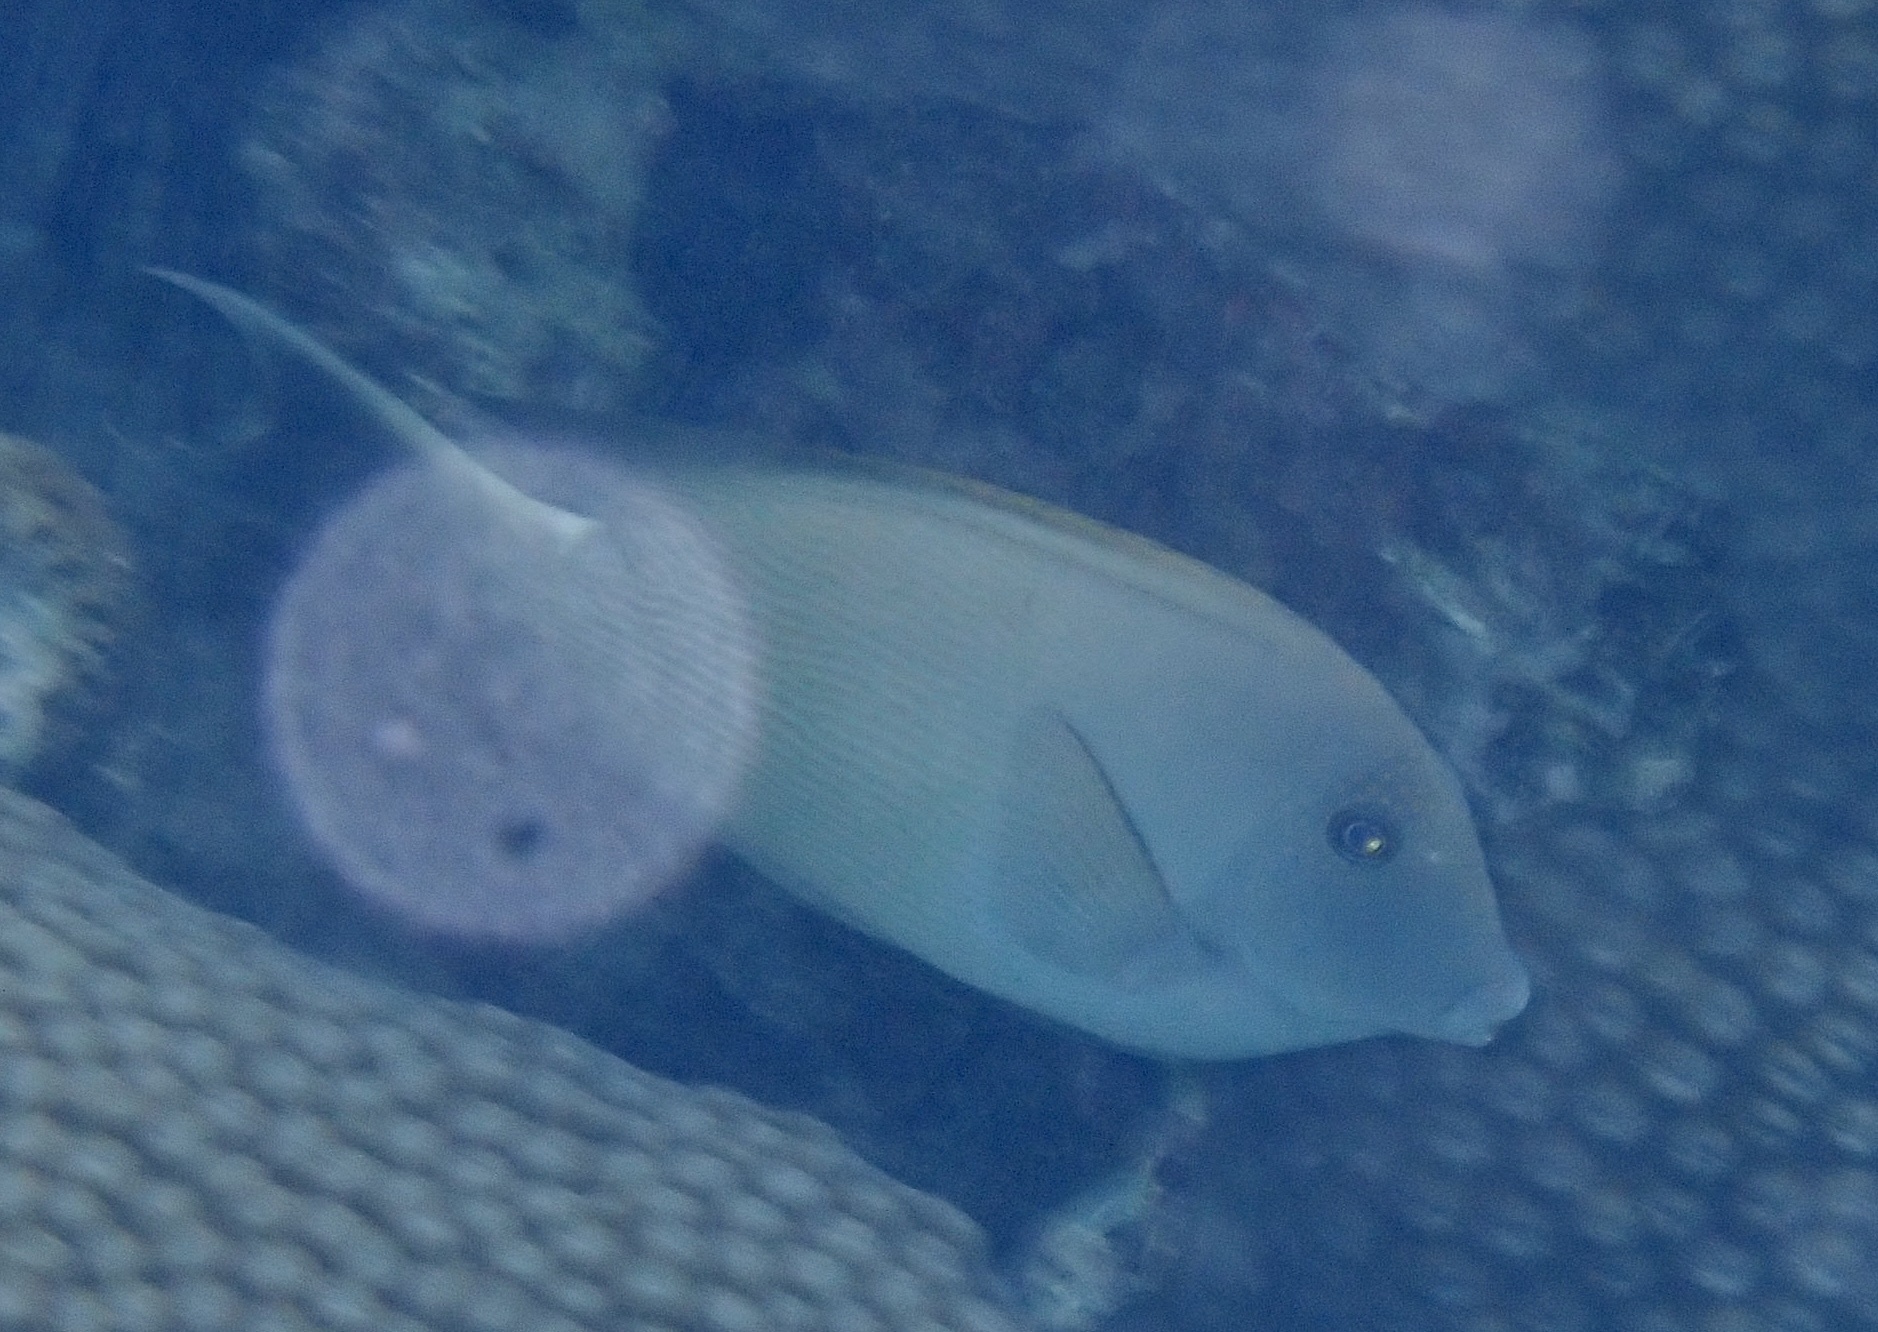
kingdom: Animalia
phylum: Chordata
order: Perciformes
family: Acanthuridae
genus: Ctenochaetus
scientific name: Ctenochaetus striatus
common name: Bristle-toothed surgeonfish
